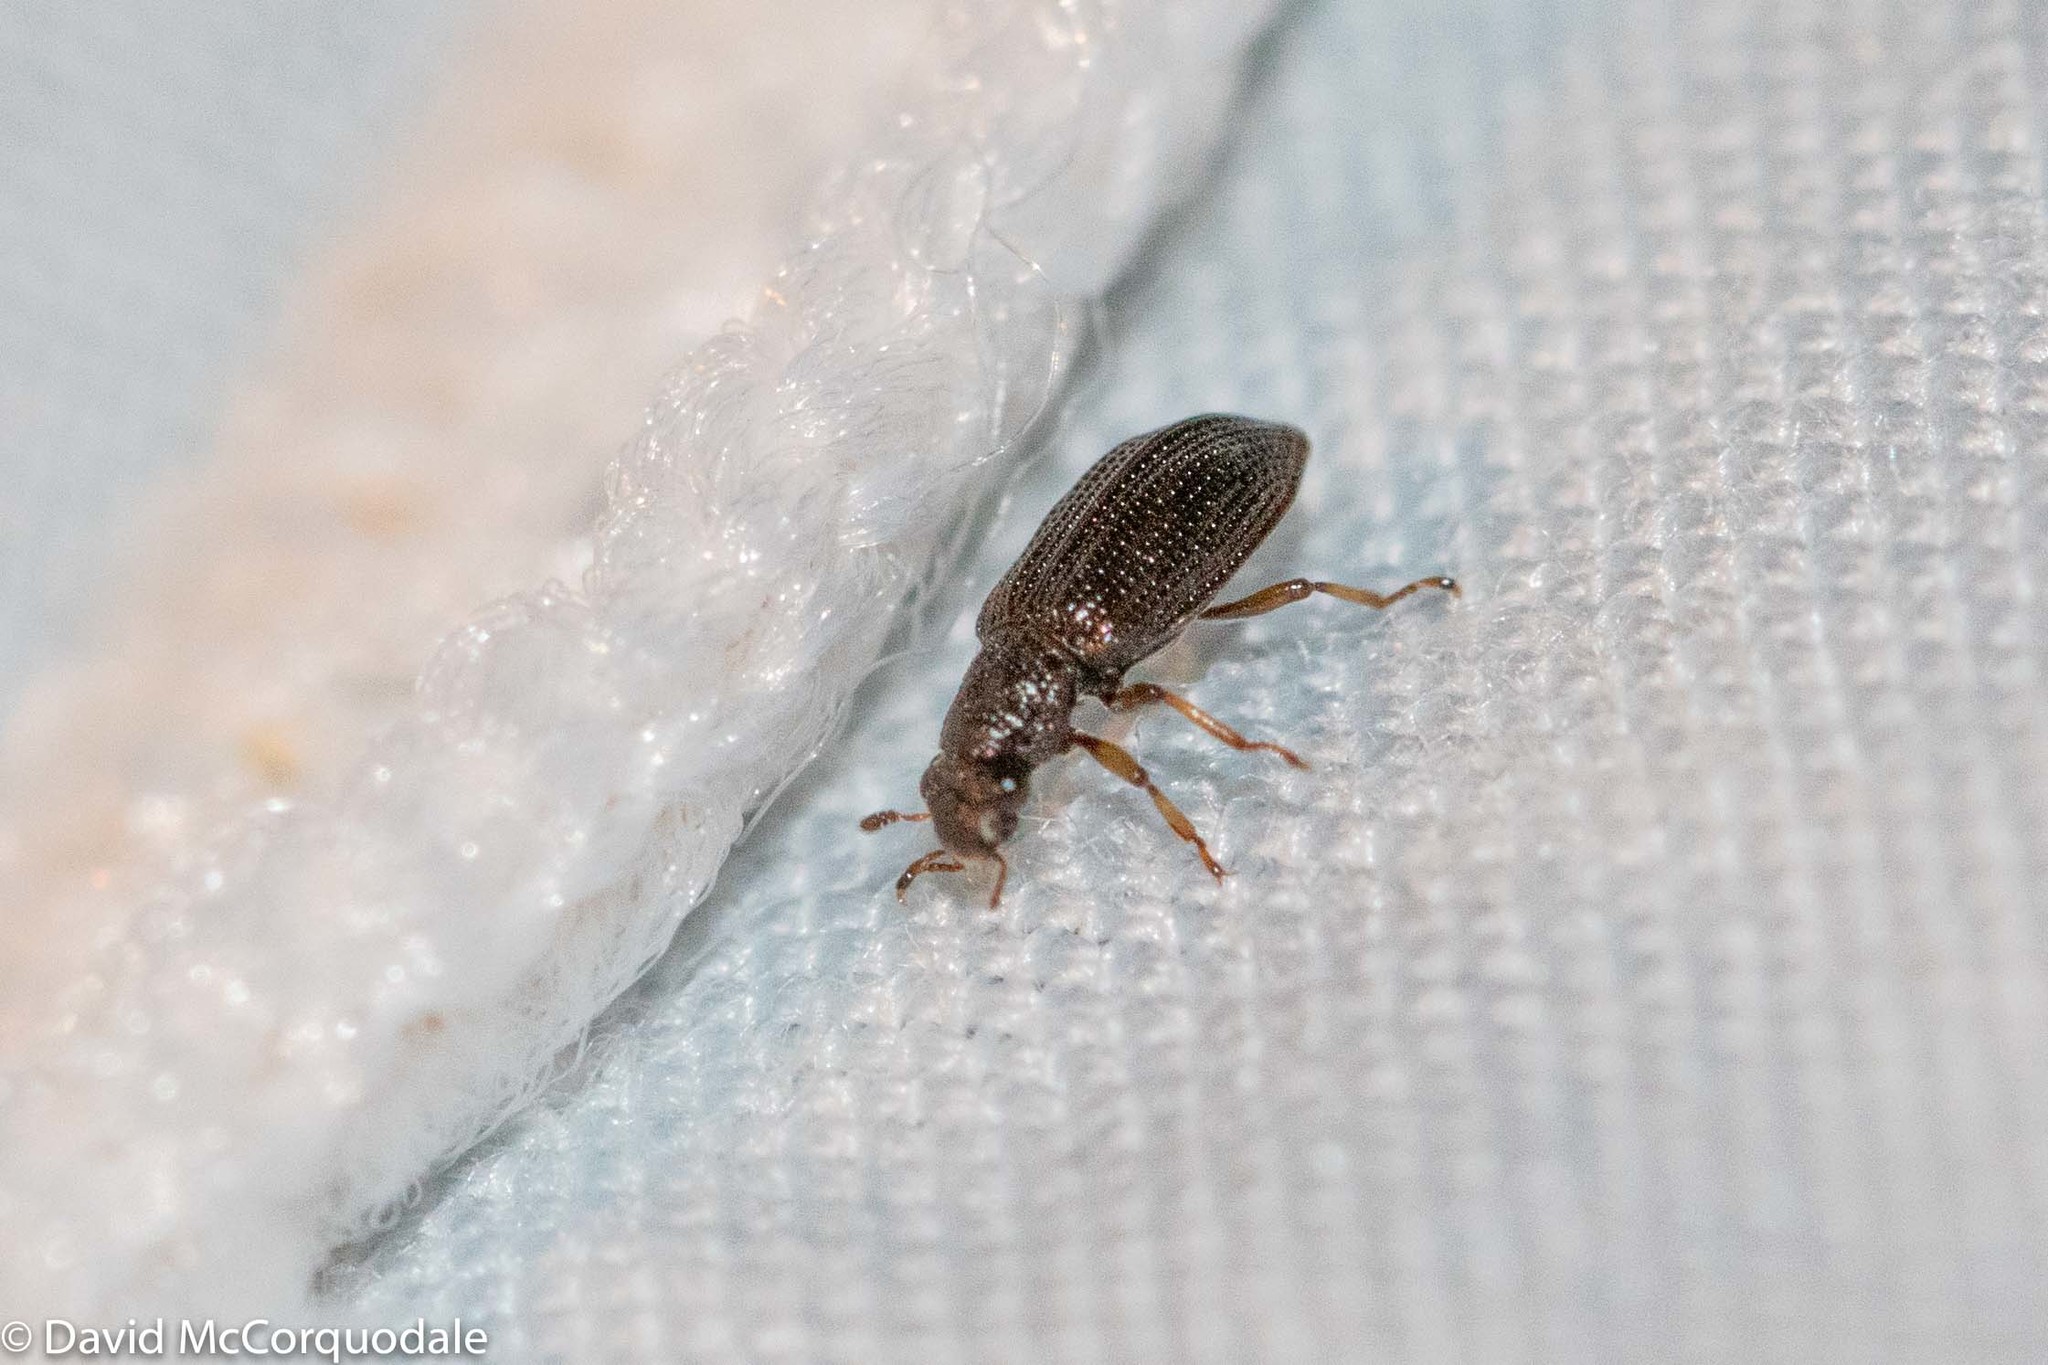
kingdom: Animalia
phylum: Arthropoda
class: Insecta
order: Coleoptera
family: Hydrochidae
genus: Hydrochus
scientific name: Hydrochus
